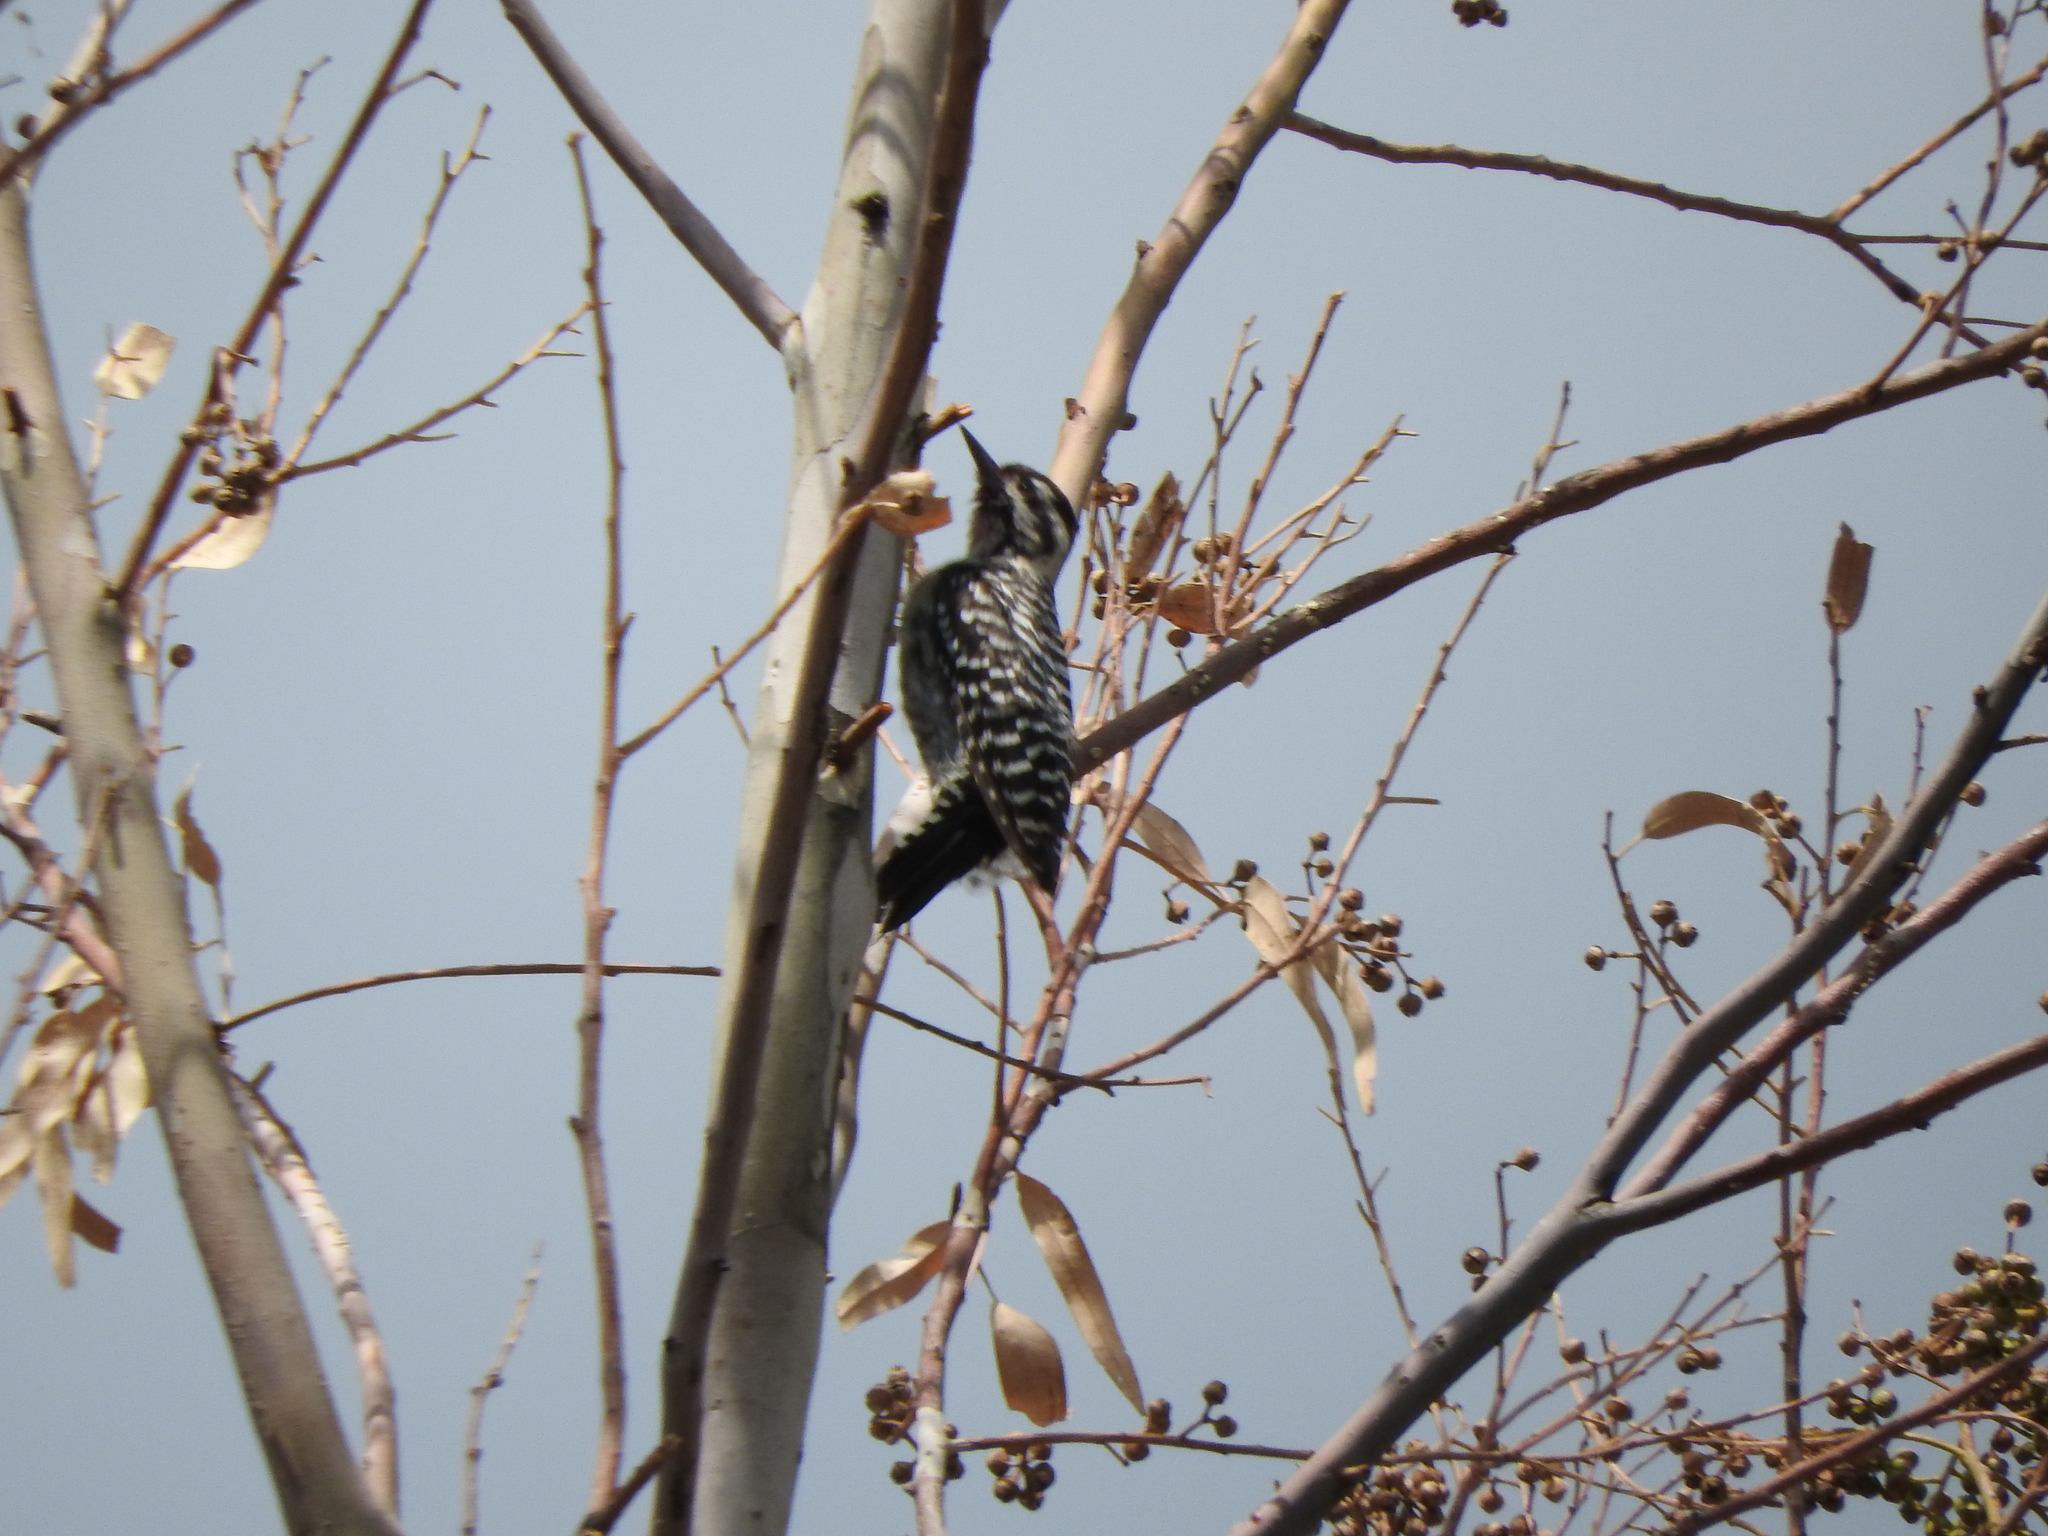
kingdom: Animalia
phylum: Chordata
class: Aves
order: Piciformes
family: Picidae
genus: Dryobates
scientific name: Dryobates scalaris
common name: Ladder-backed woodpecker
